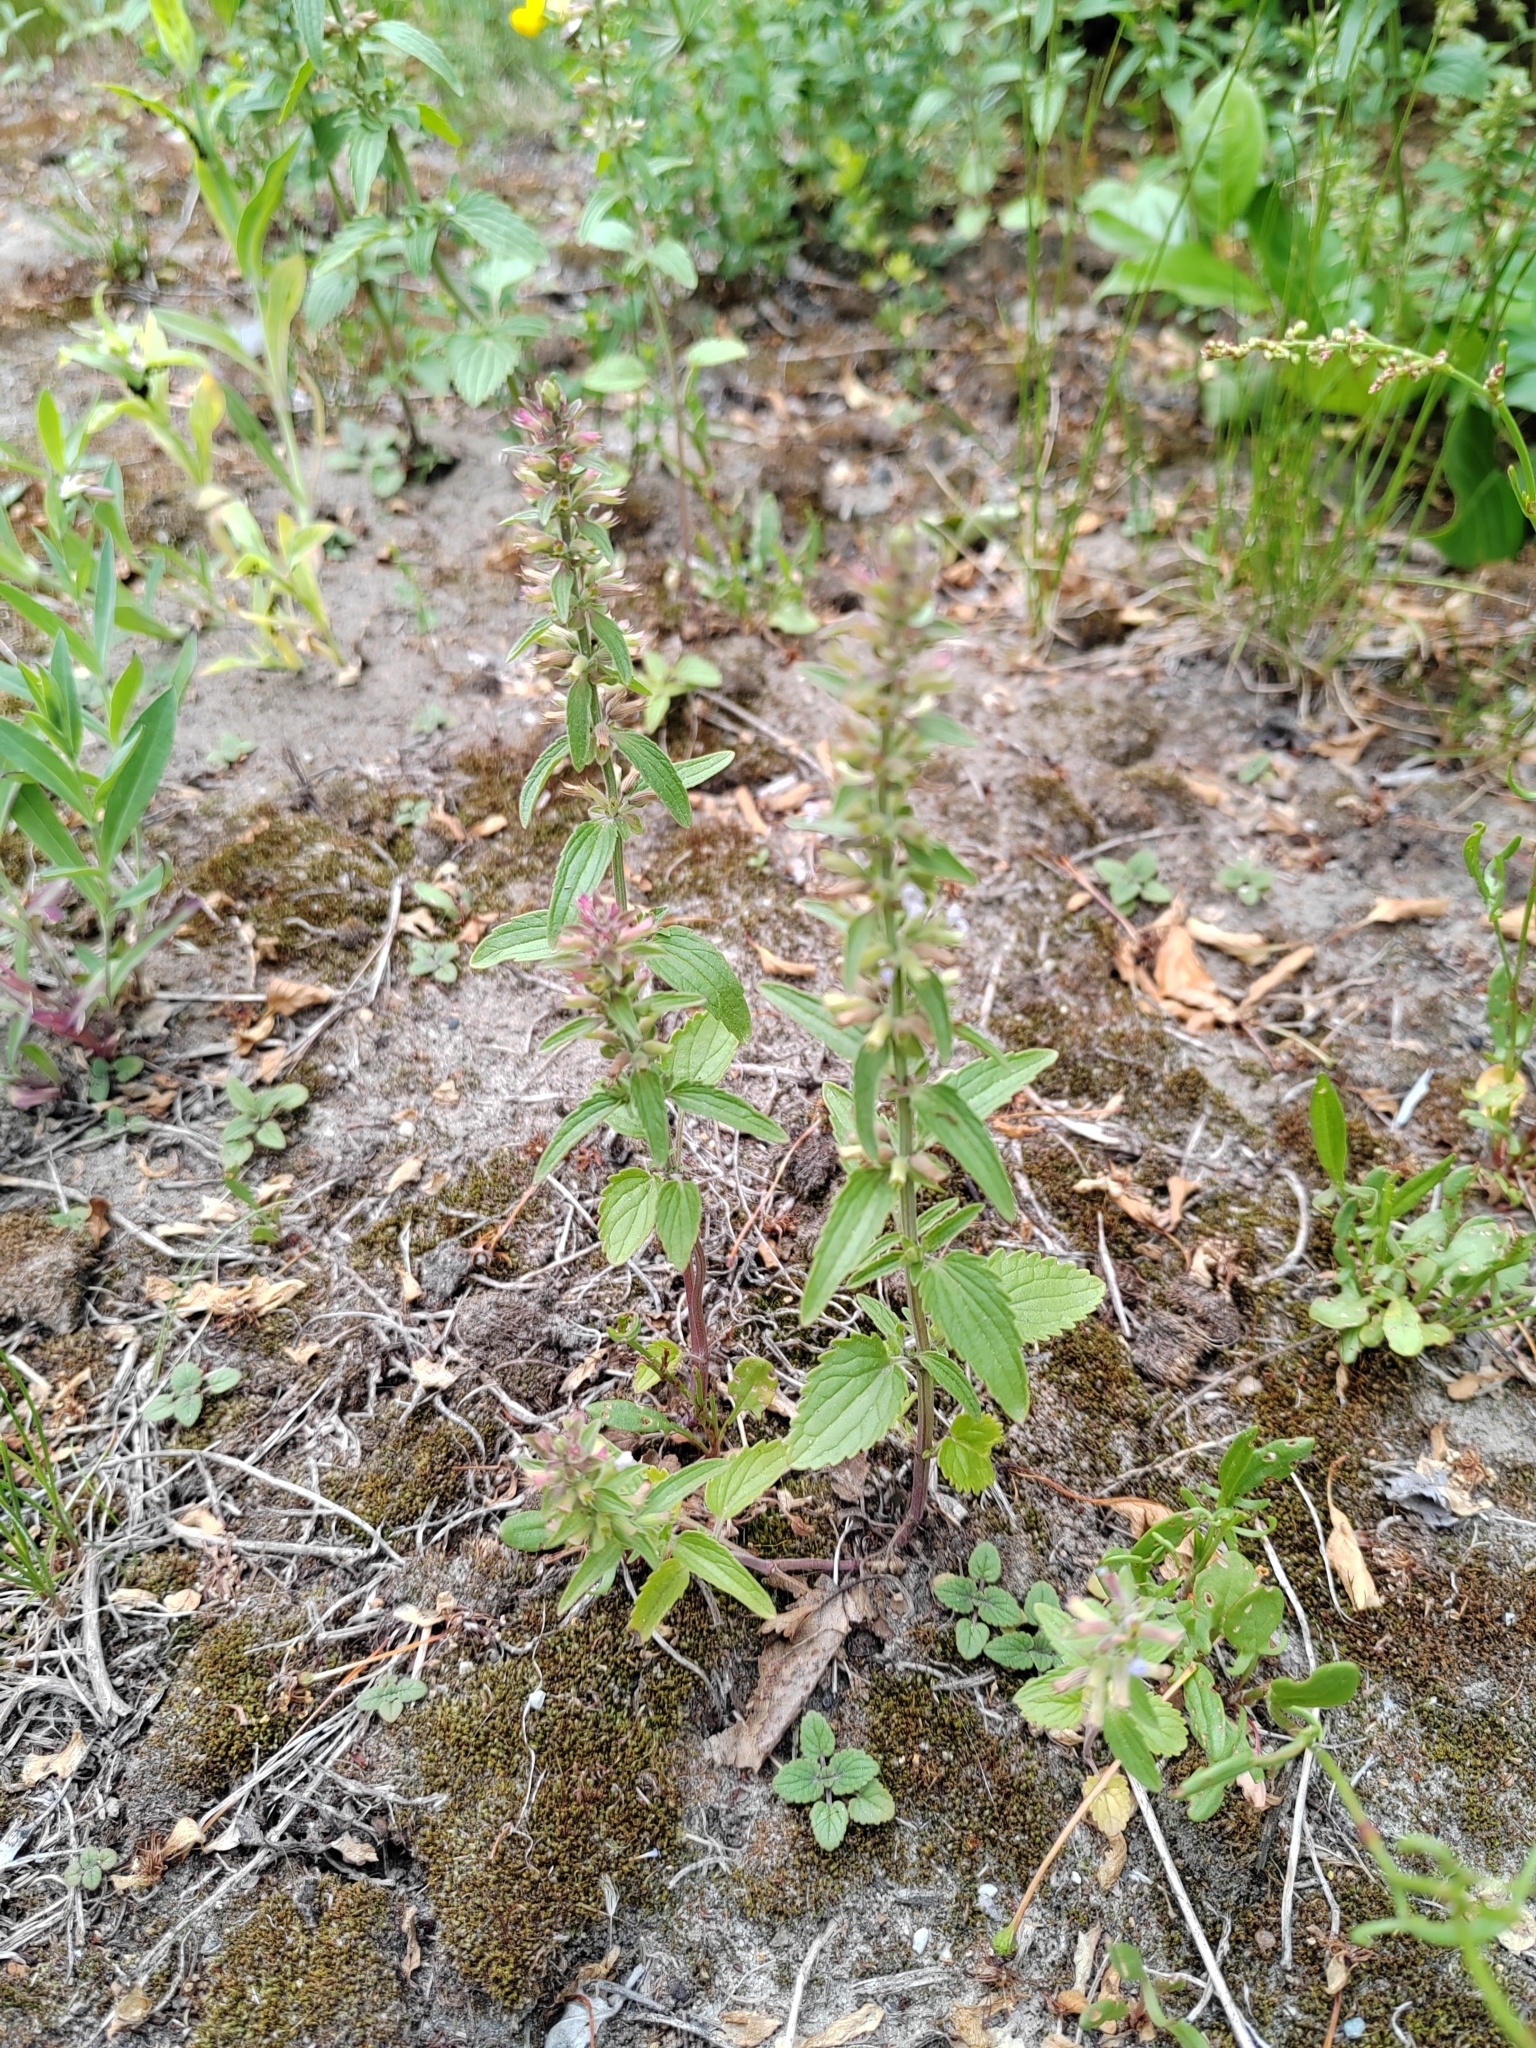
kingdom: Plantae
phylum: Tracheophyta
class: Magnoliopsida
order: Lamiales
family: Lamiaceae
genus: Dracocephalum
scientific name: Dracocephalum thymiflorum
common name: Thymeleaf dragonhead
